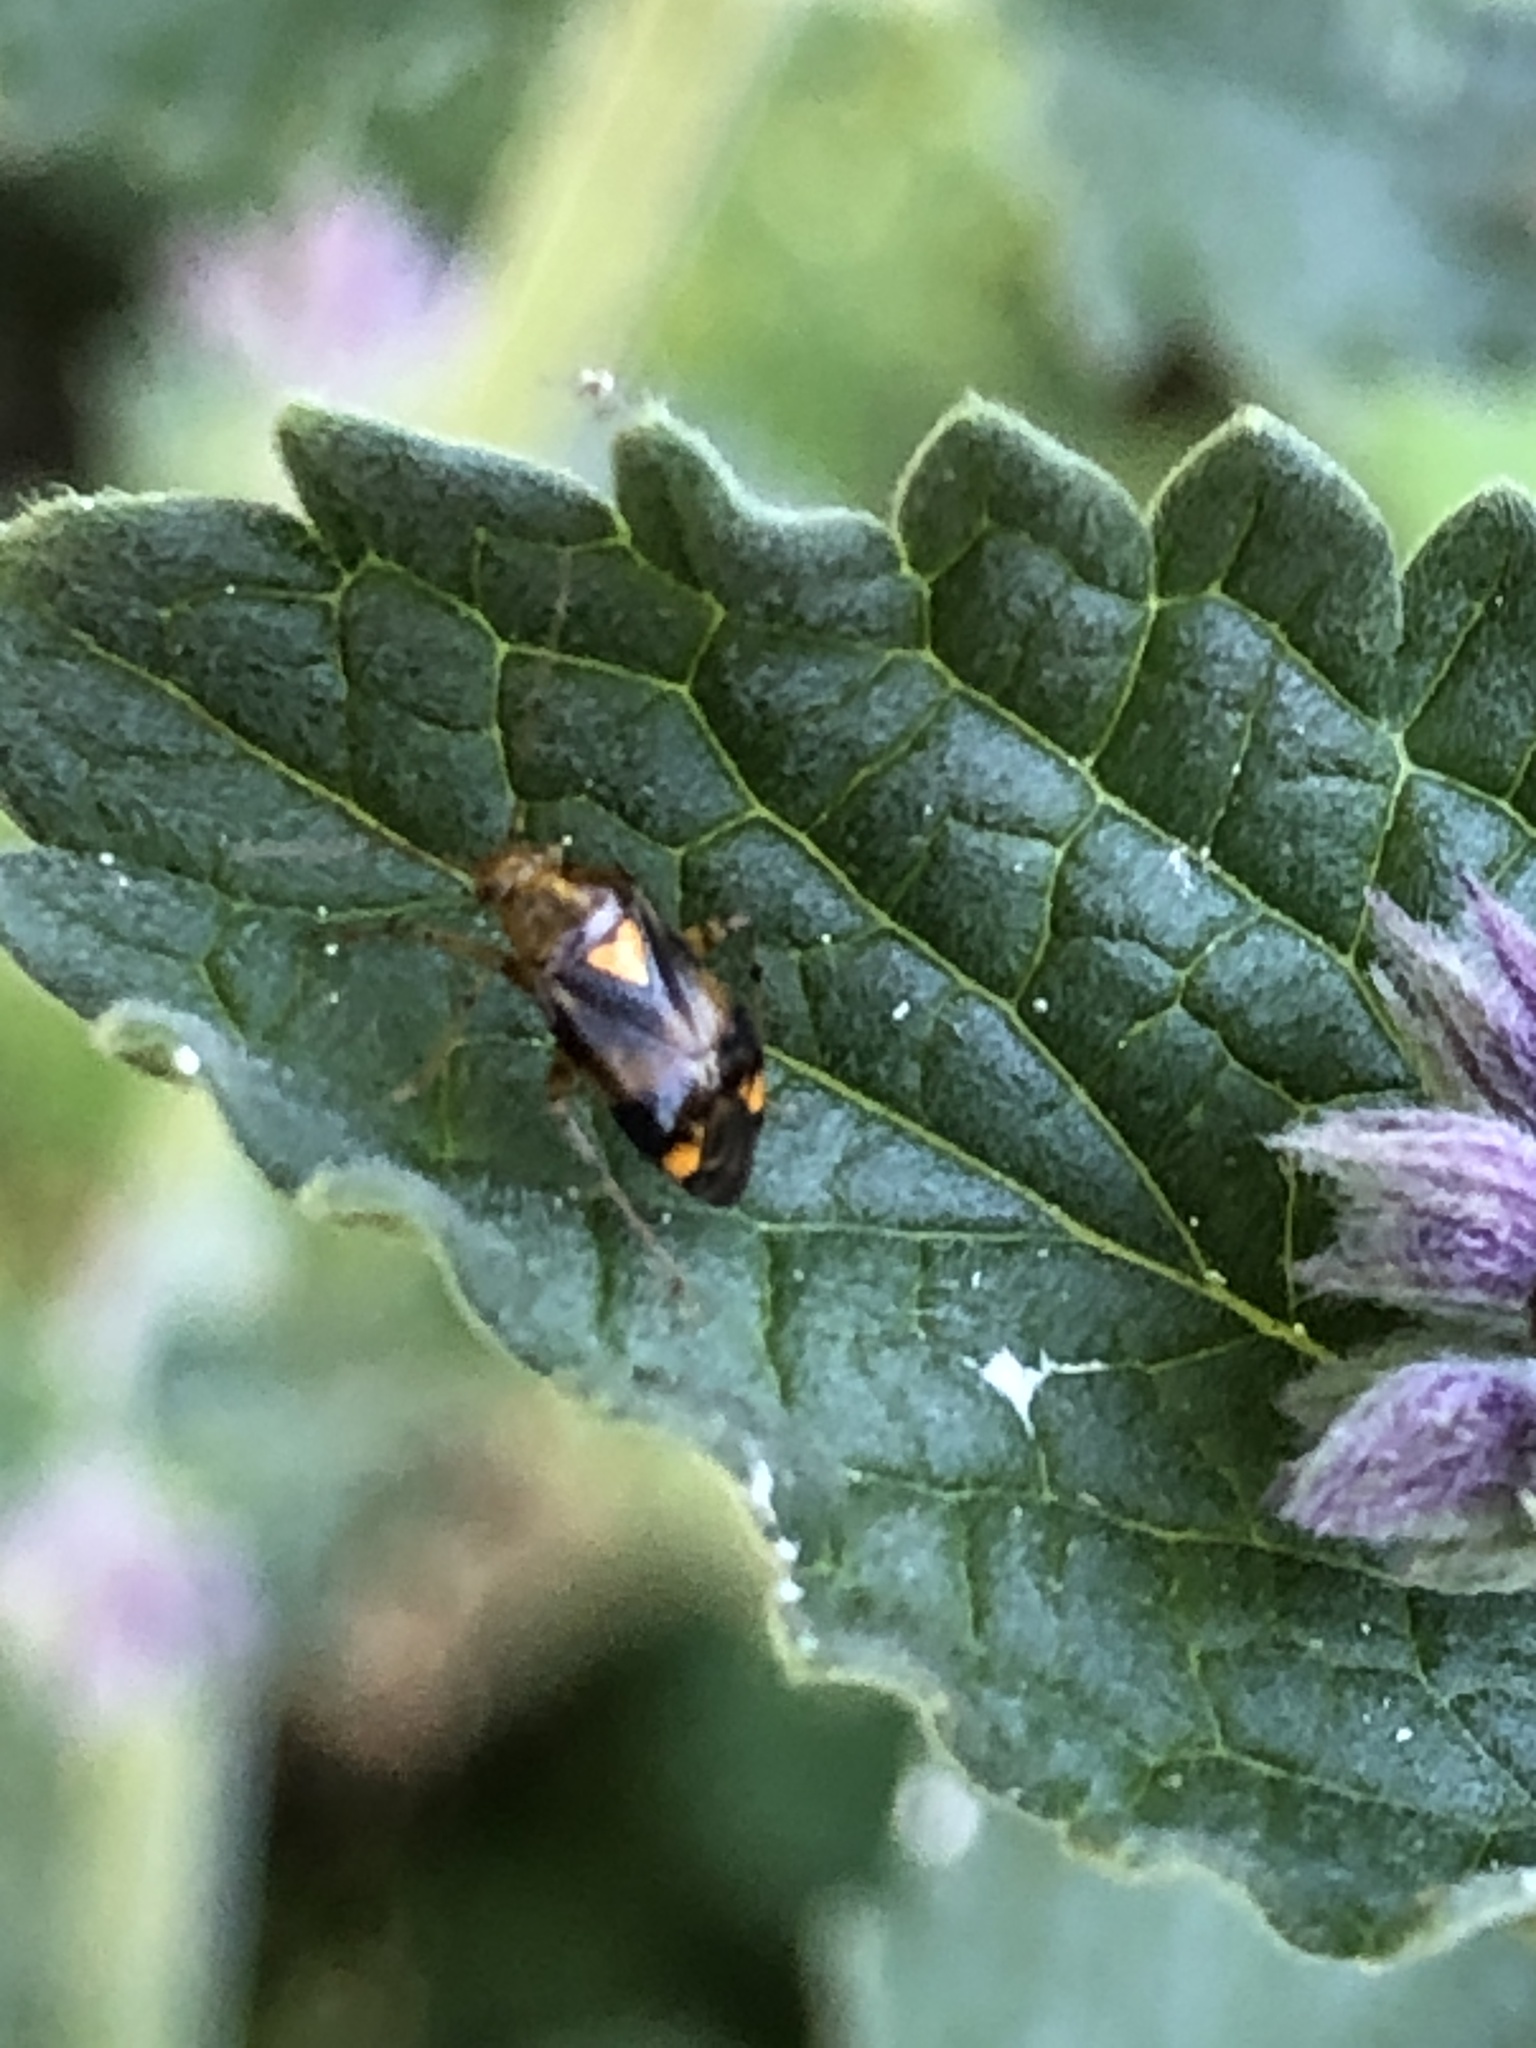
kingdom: Animalia
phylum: Arthropoda
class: Insecta
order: Hemiptera
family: Miridae
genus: Liocoris
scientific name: Liocoris tripustulatus
